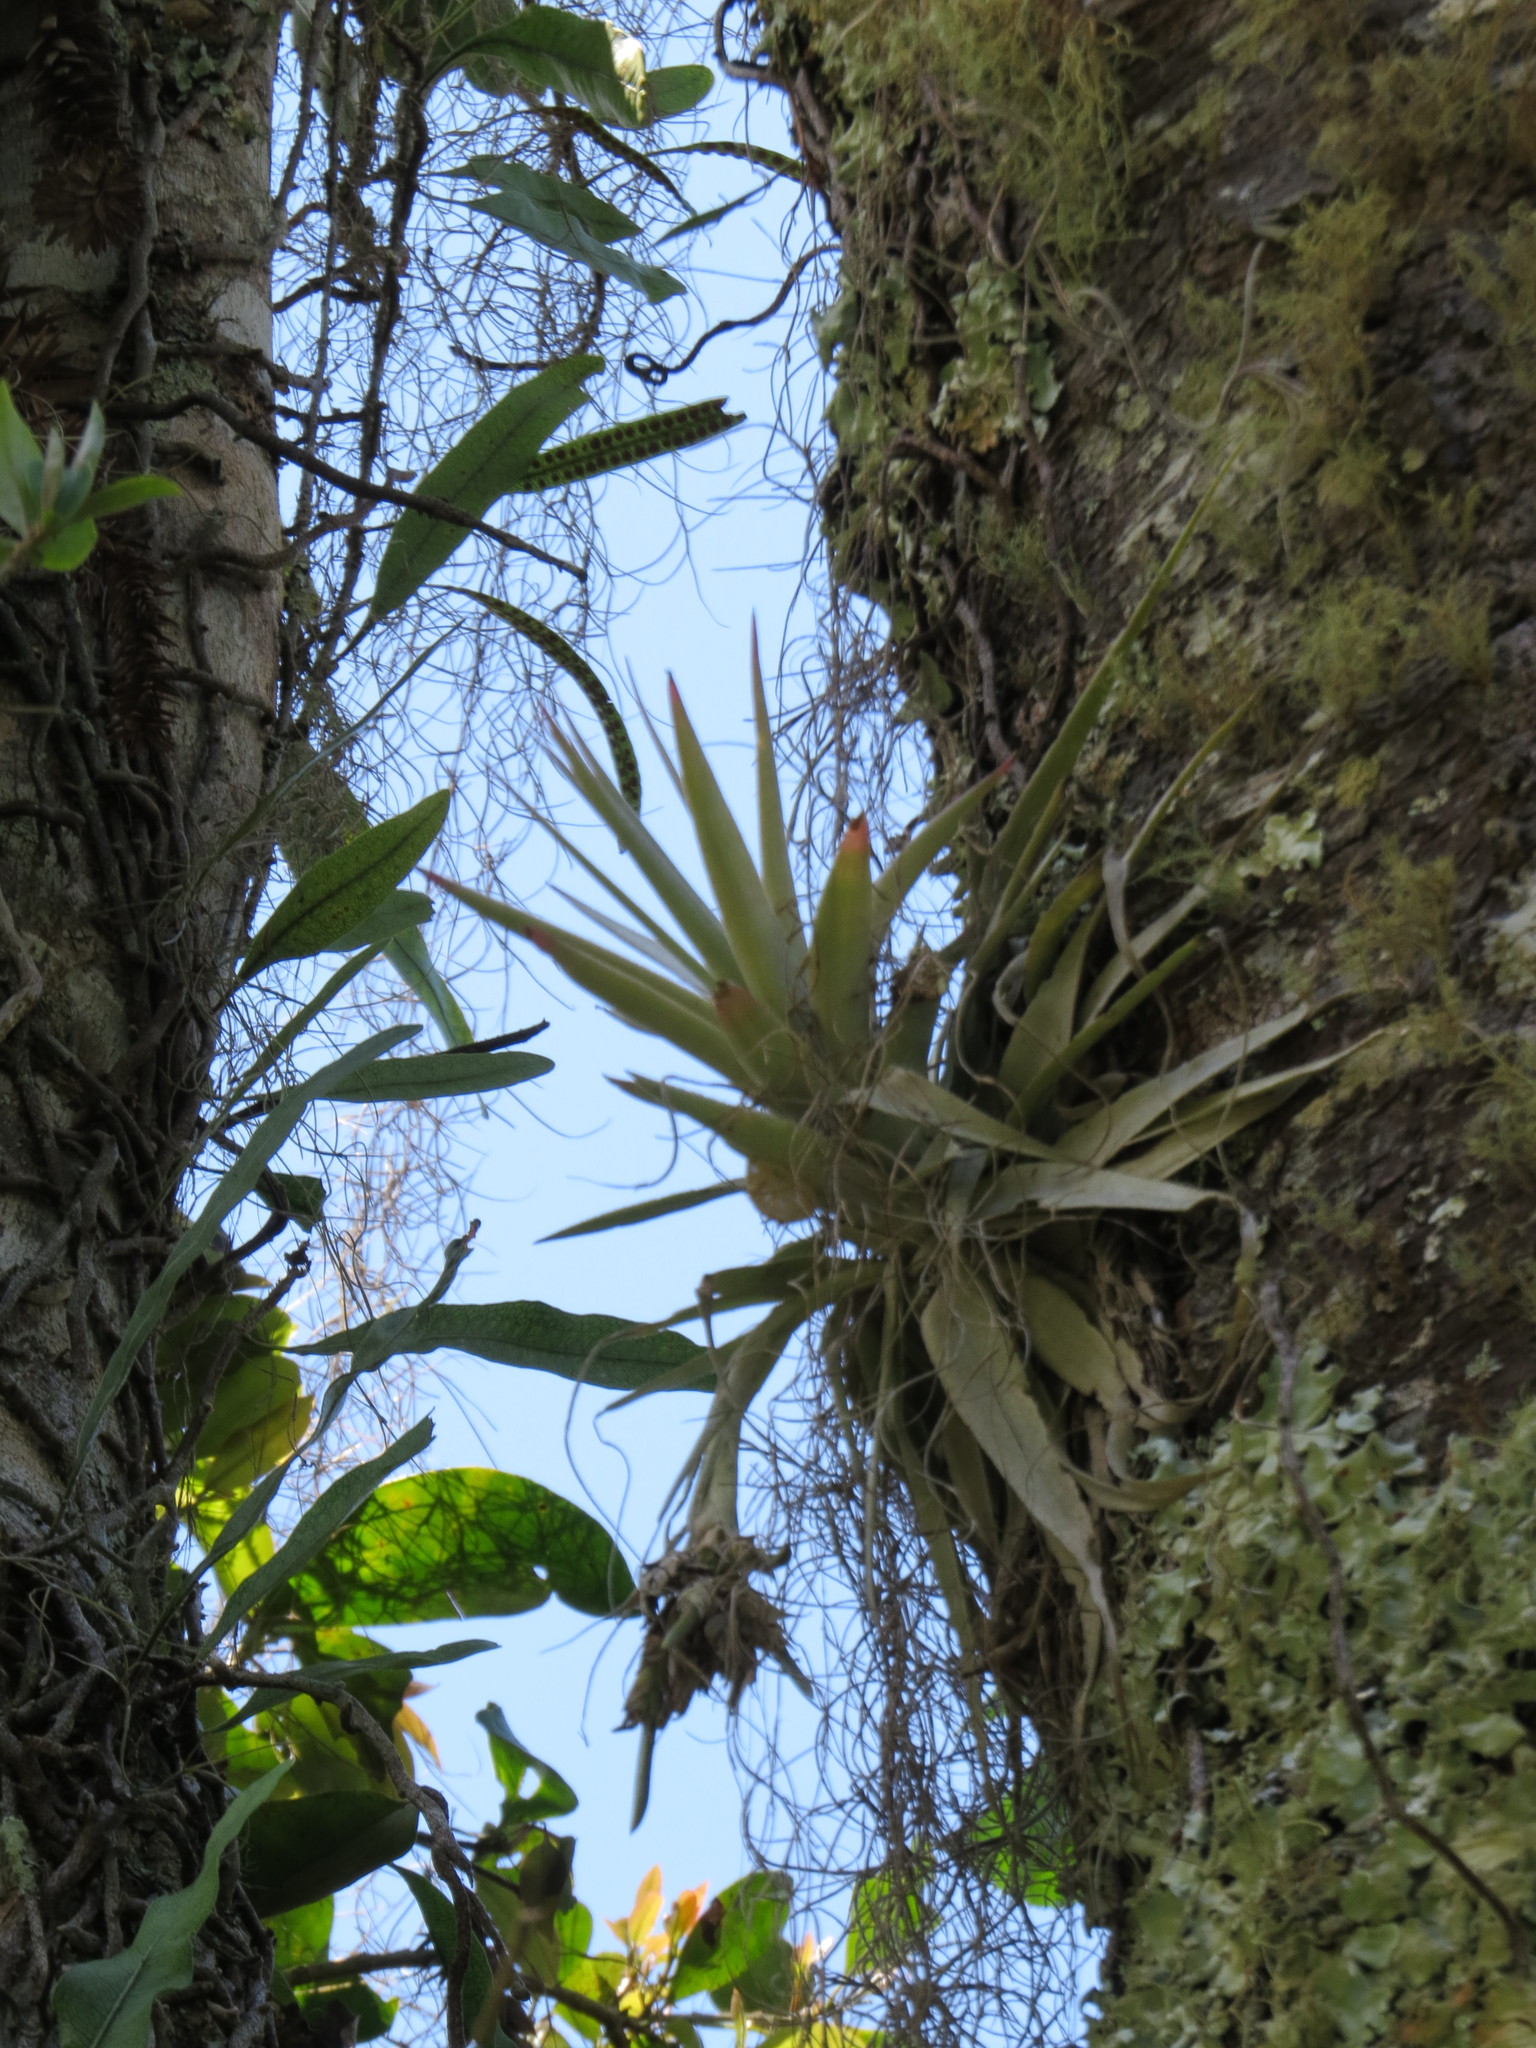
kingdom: Plantae
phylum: Tracheophyta
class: Liliopsida
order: Poales
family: Bromeliaceae
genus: Tillandsia
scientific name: Tillandsia gardneri
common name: Airplant
